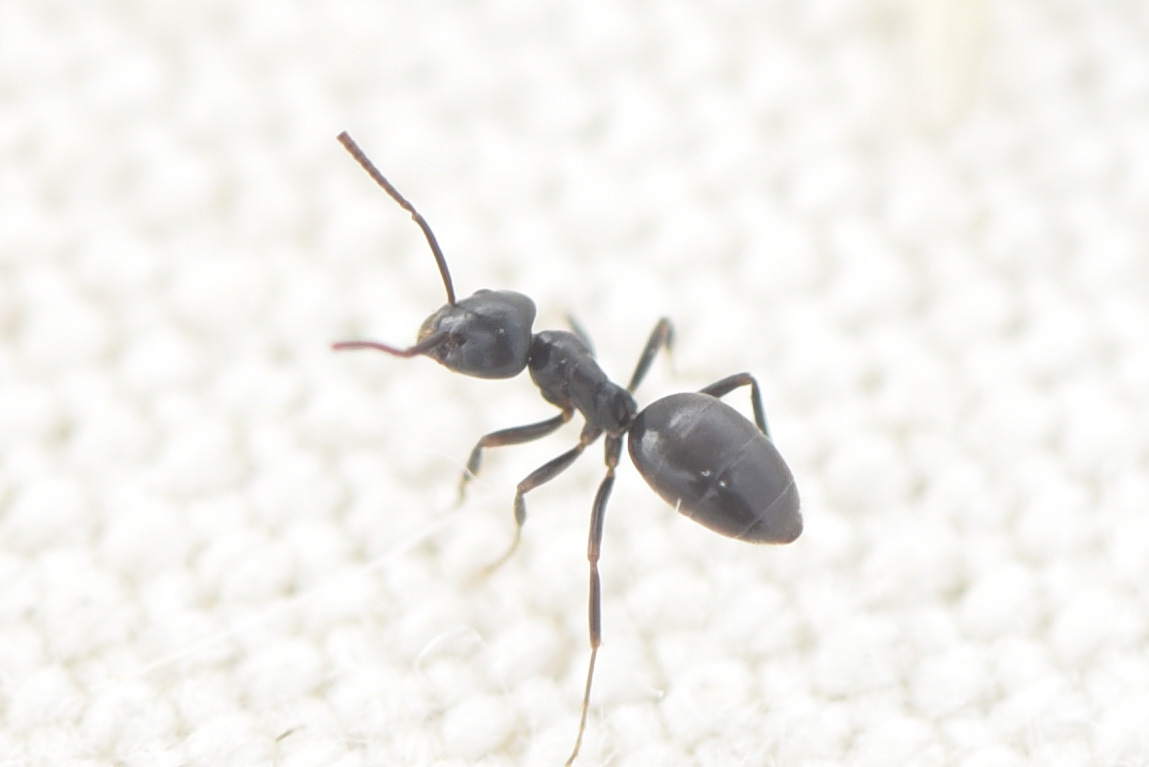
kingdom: Animalia
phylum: Arthropoda
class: Insecta
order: Hymenoptera
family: Formicidae
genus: Tapinoma
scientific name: Tapinoma sessile
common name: Odorous house ant
